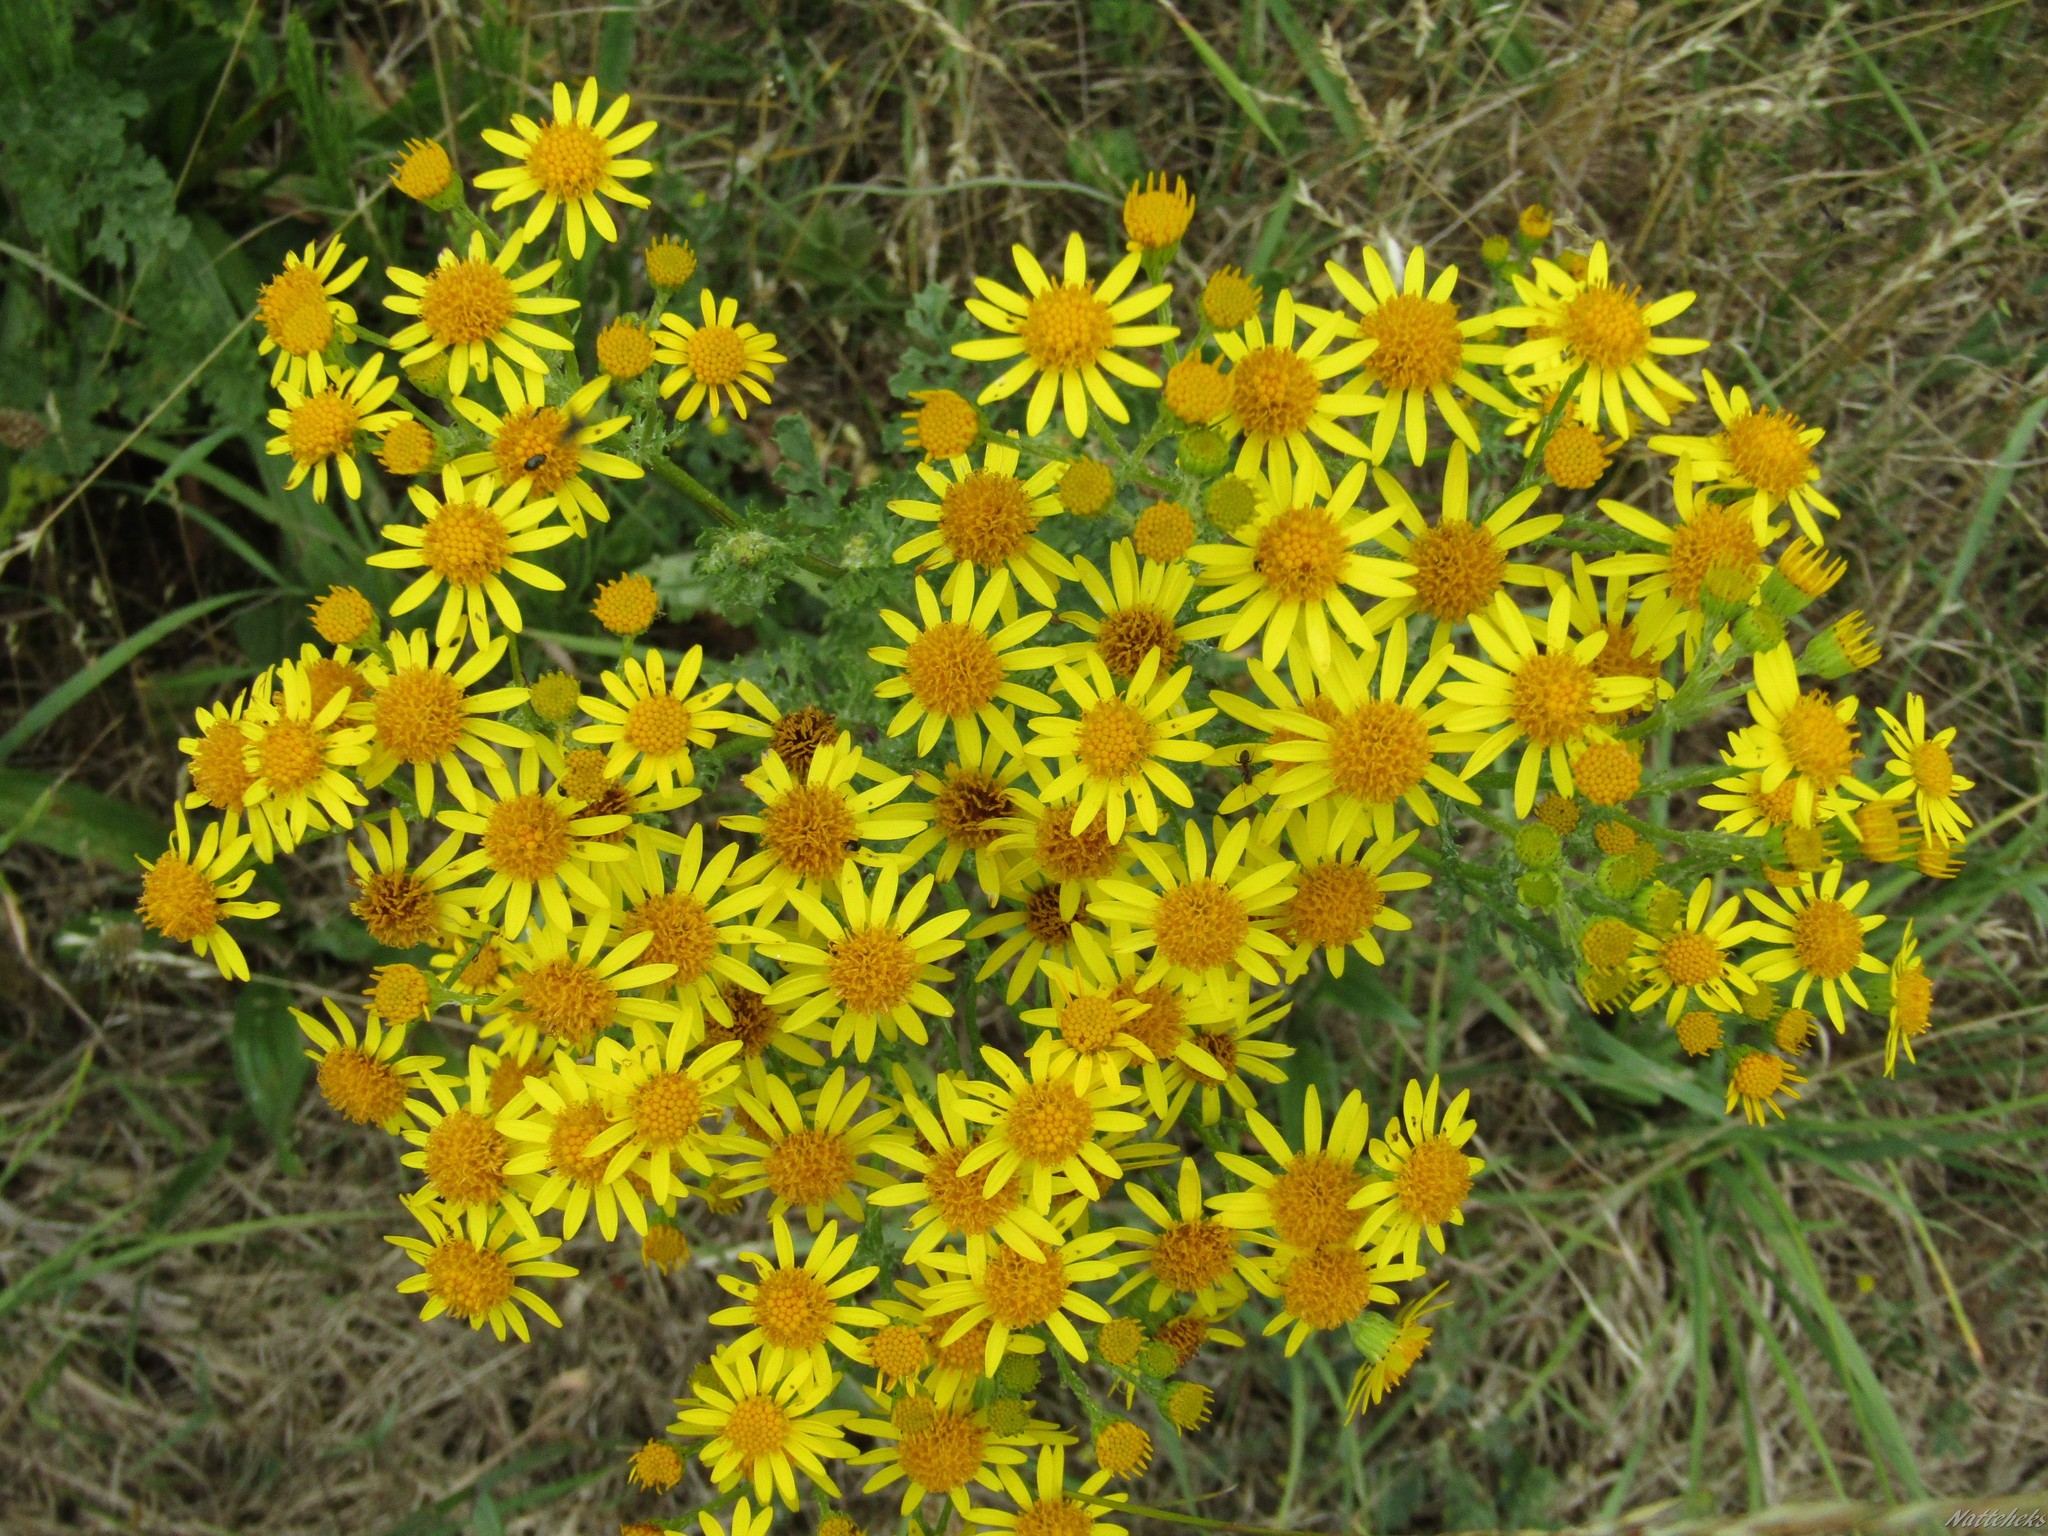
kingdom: Plantae
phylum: Tracheophyta
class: Magnoliopsida
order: Asterales
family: Asteraceae
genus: Jacobaea
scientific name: Jacobaea vulgaris
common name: Stinking willie
